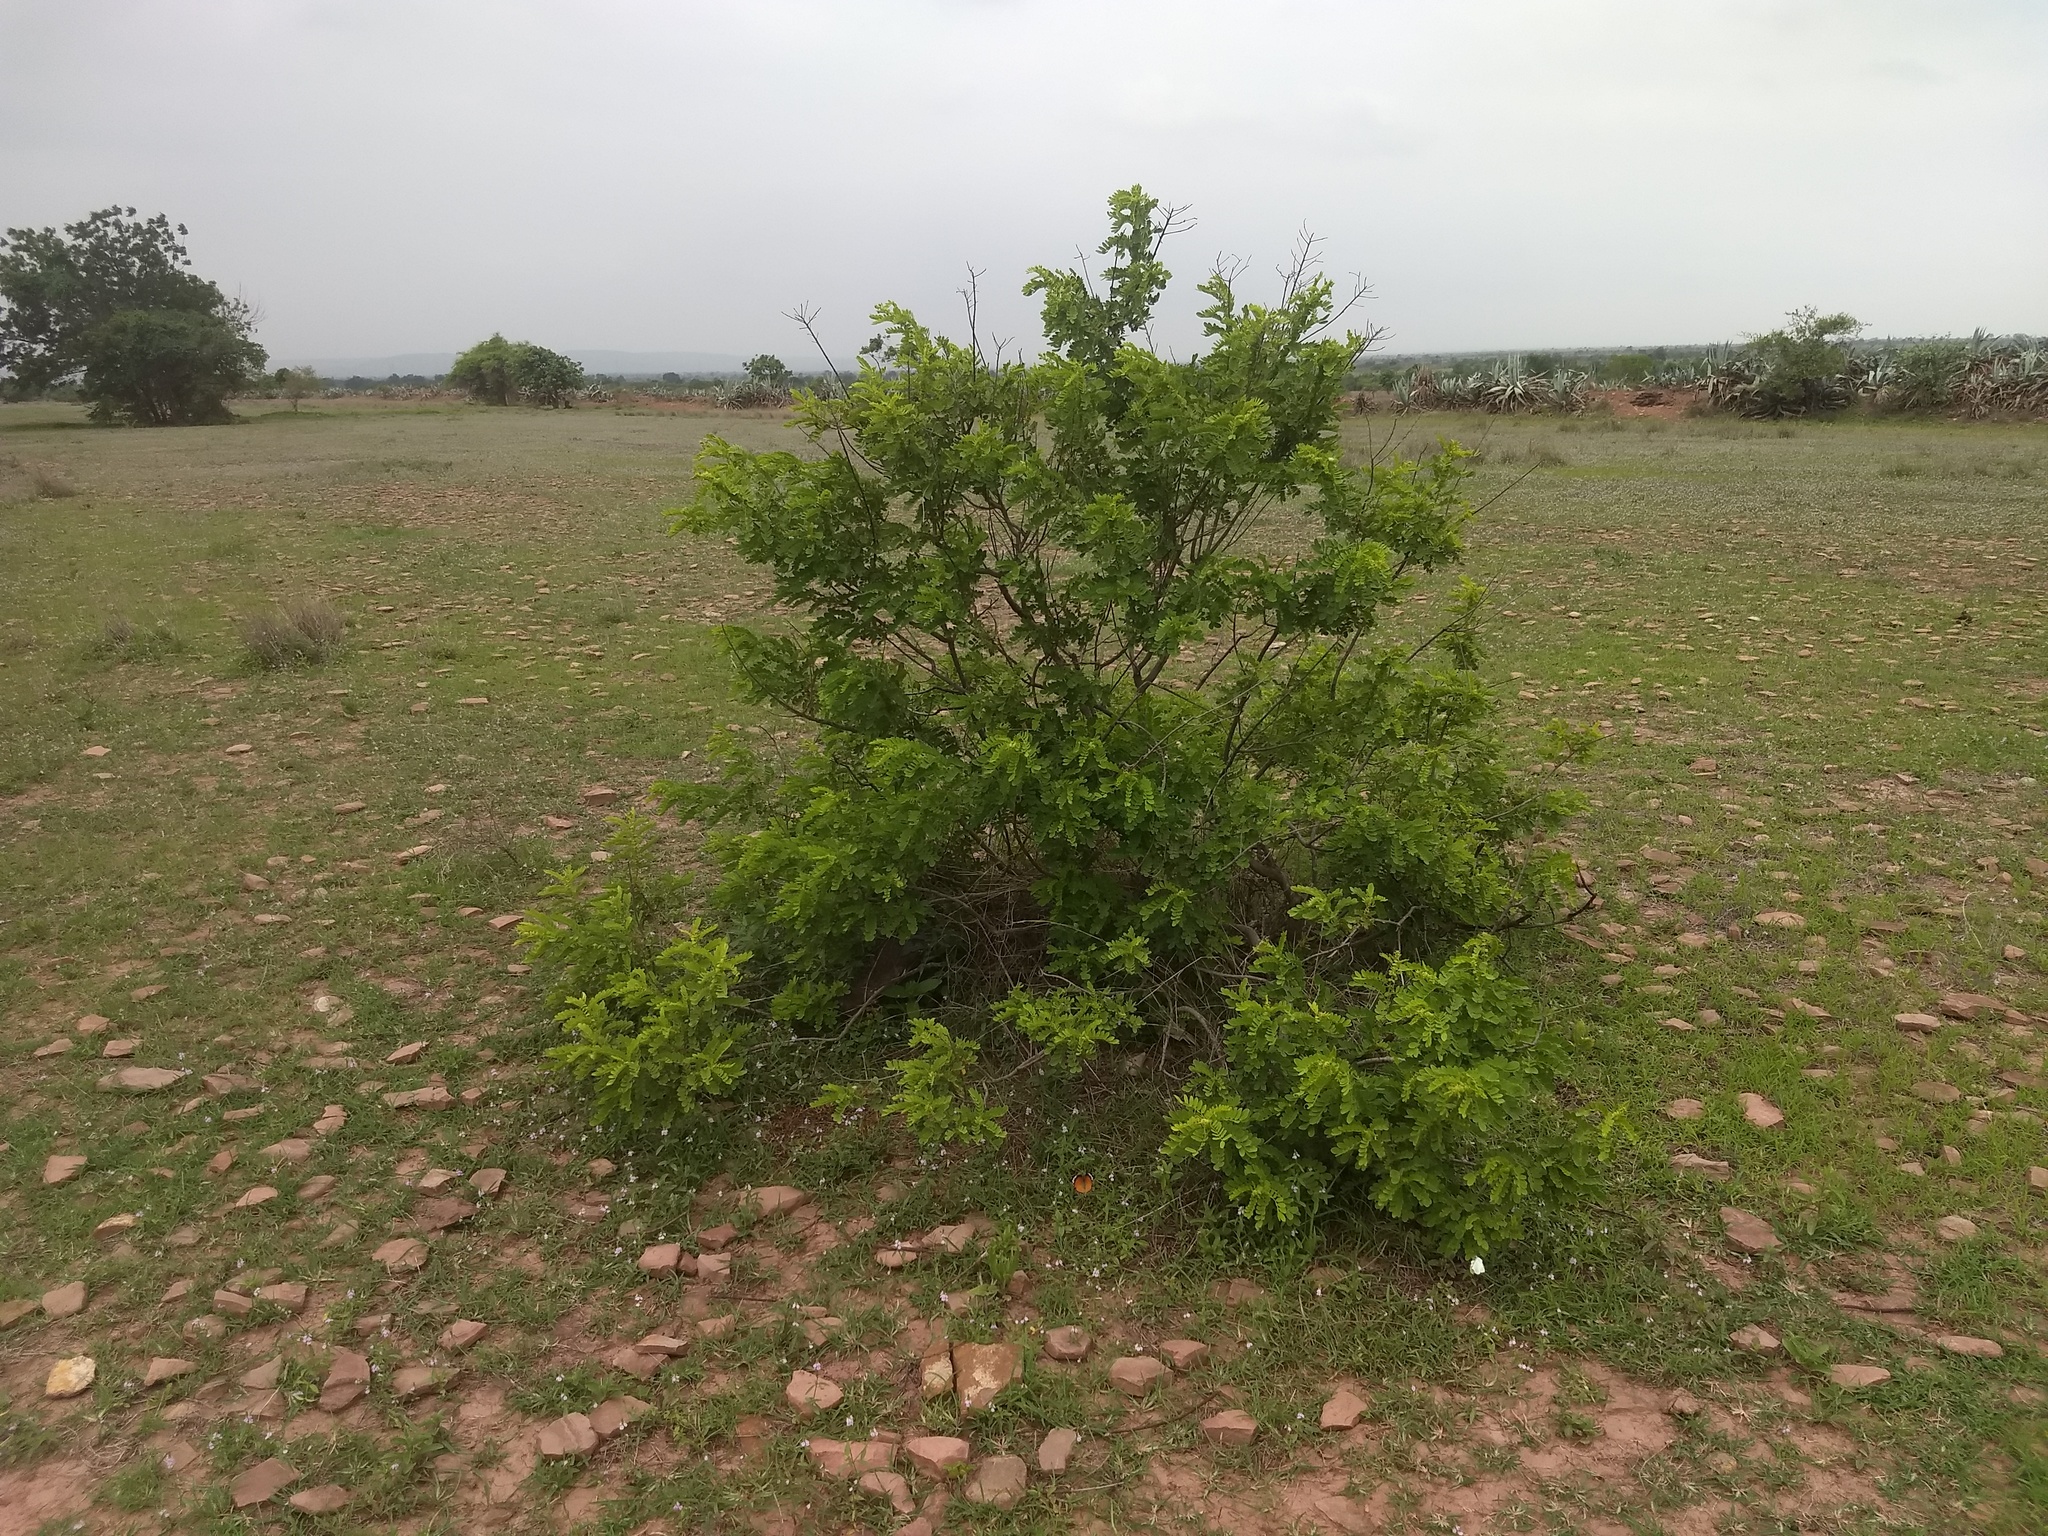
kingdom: Plantae
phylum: Tracheophyta
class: Magnoliopsida
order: Fabales
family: Fabaceae
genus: Senna
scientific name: Senna auriculata
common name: Tanner's cassia
